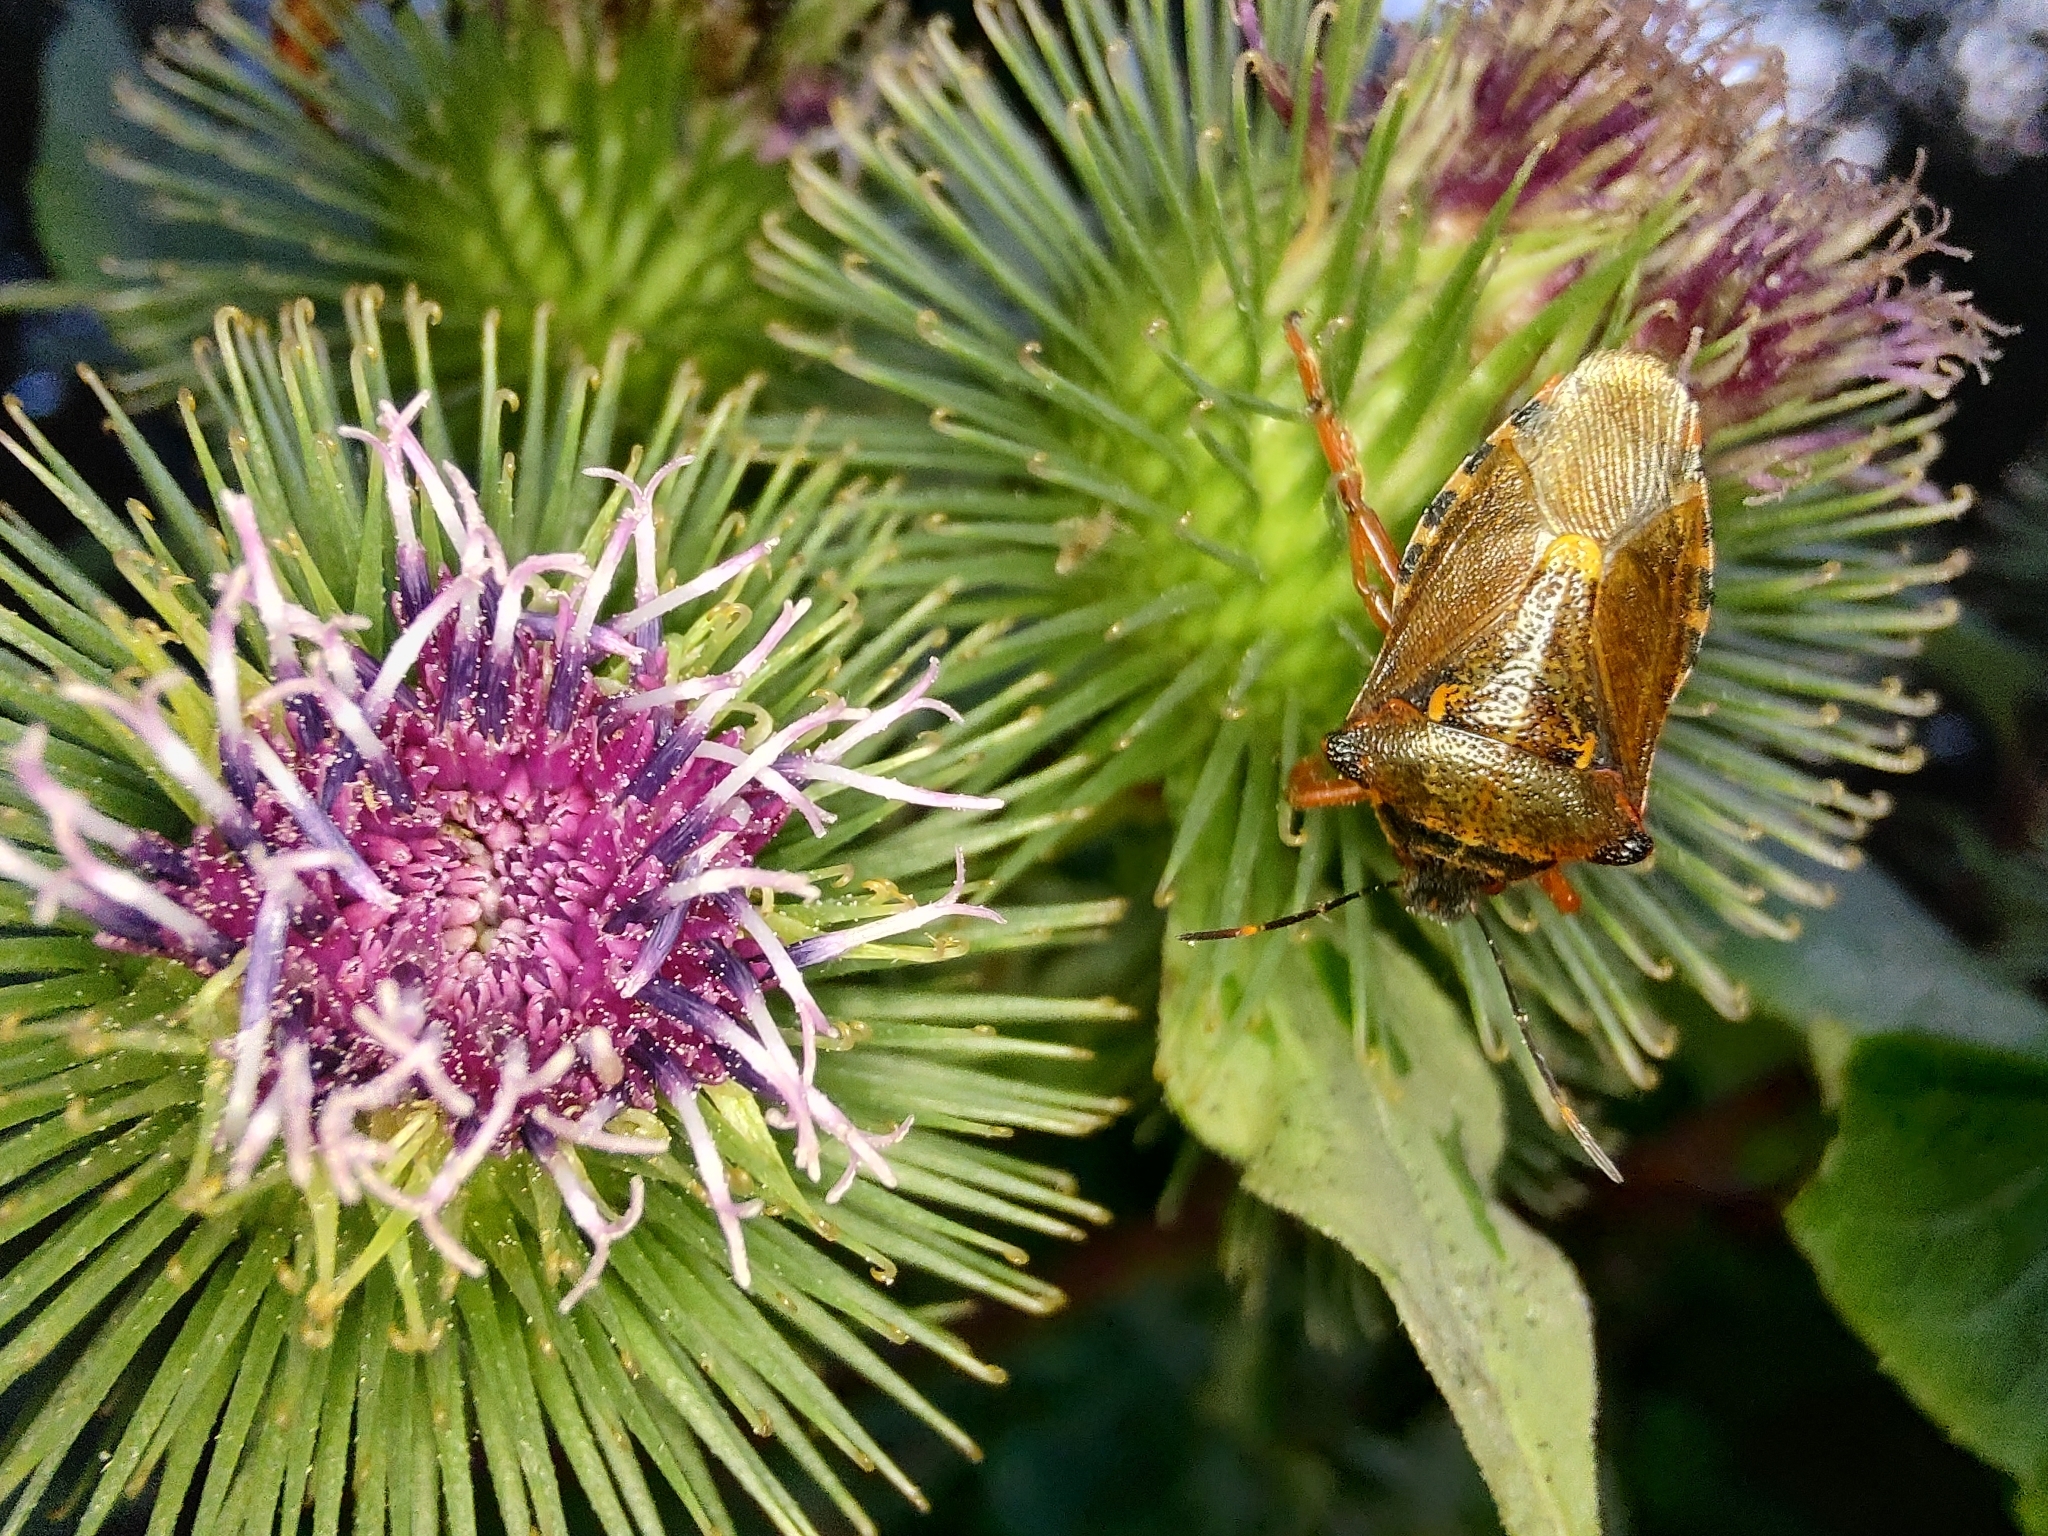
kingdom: Animalia
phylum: Arthropoda
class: Insecta
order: Hemiptera
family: Pentatomidae
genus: Pinthaeus
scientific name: Pinthaeus sanguinipes
